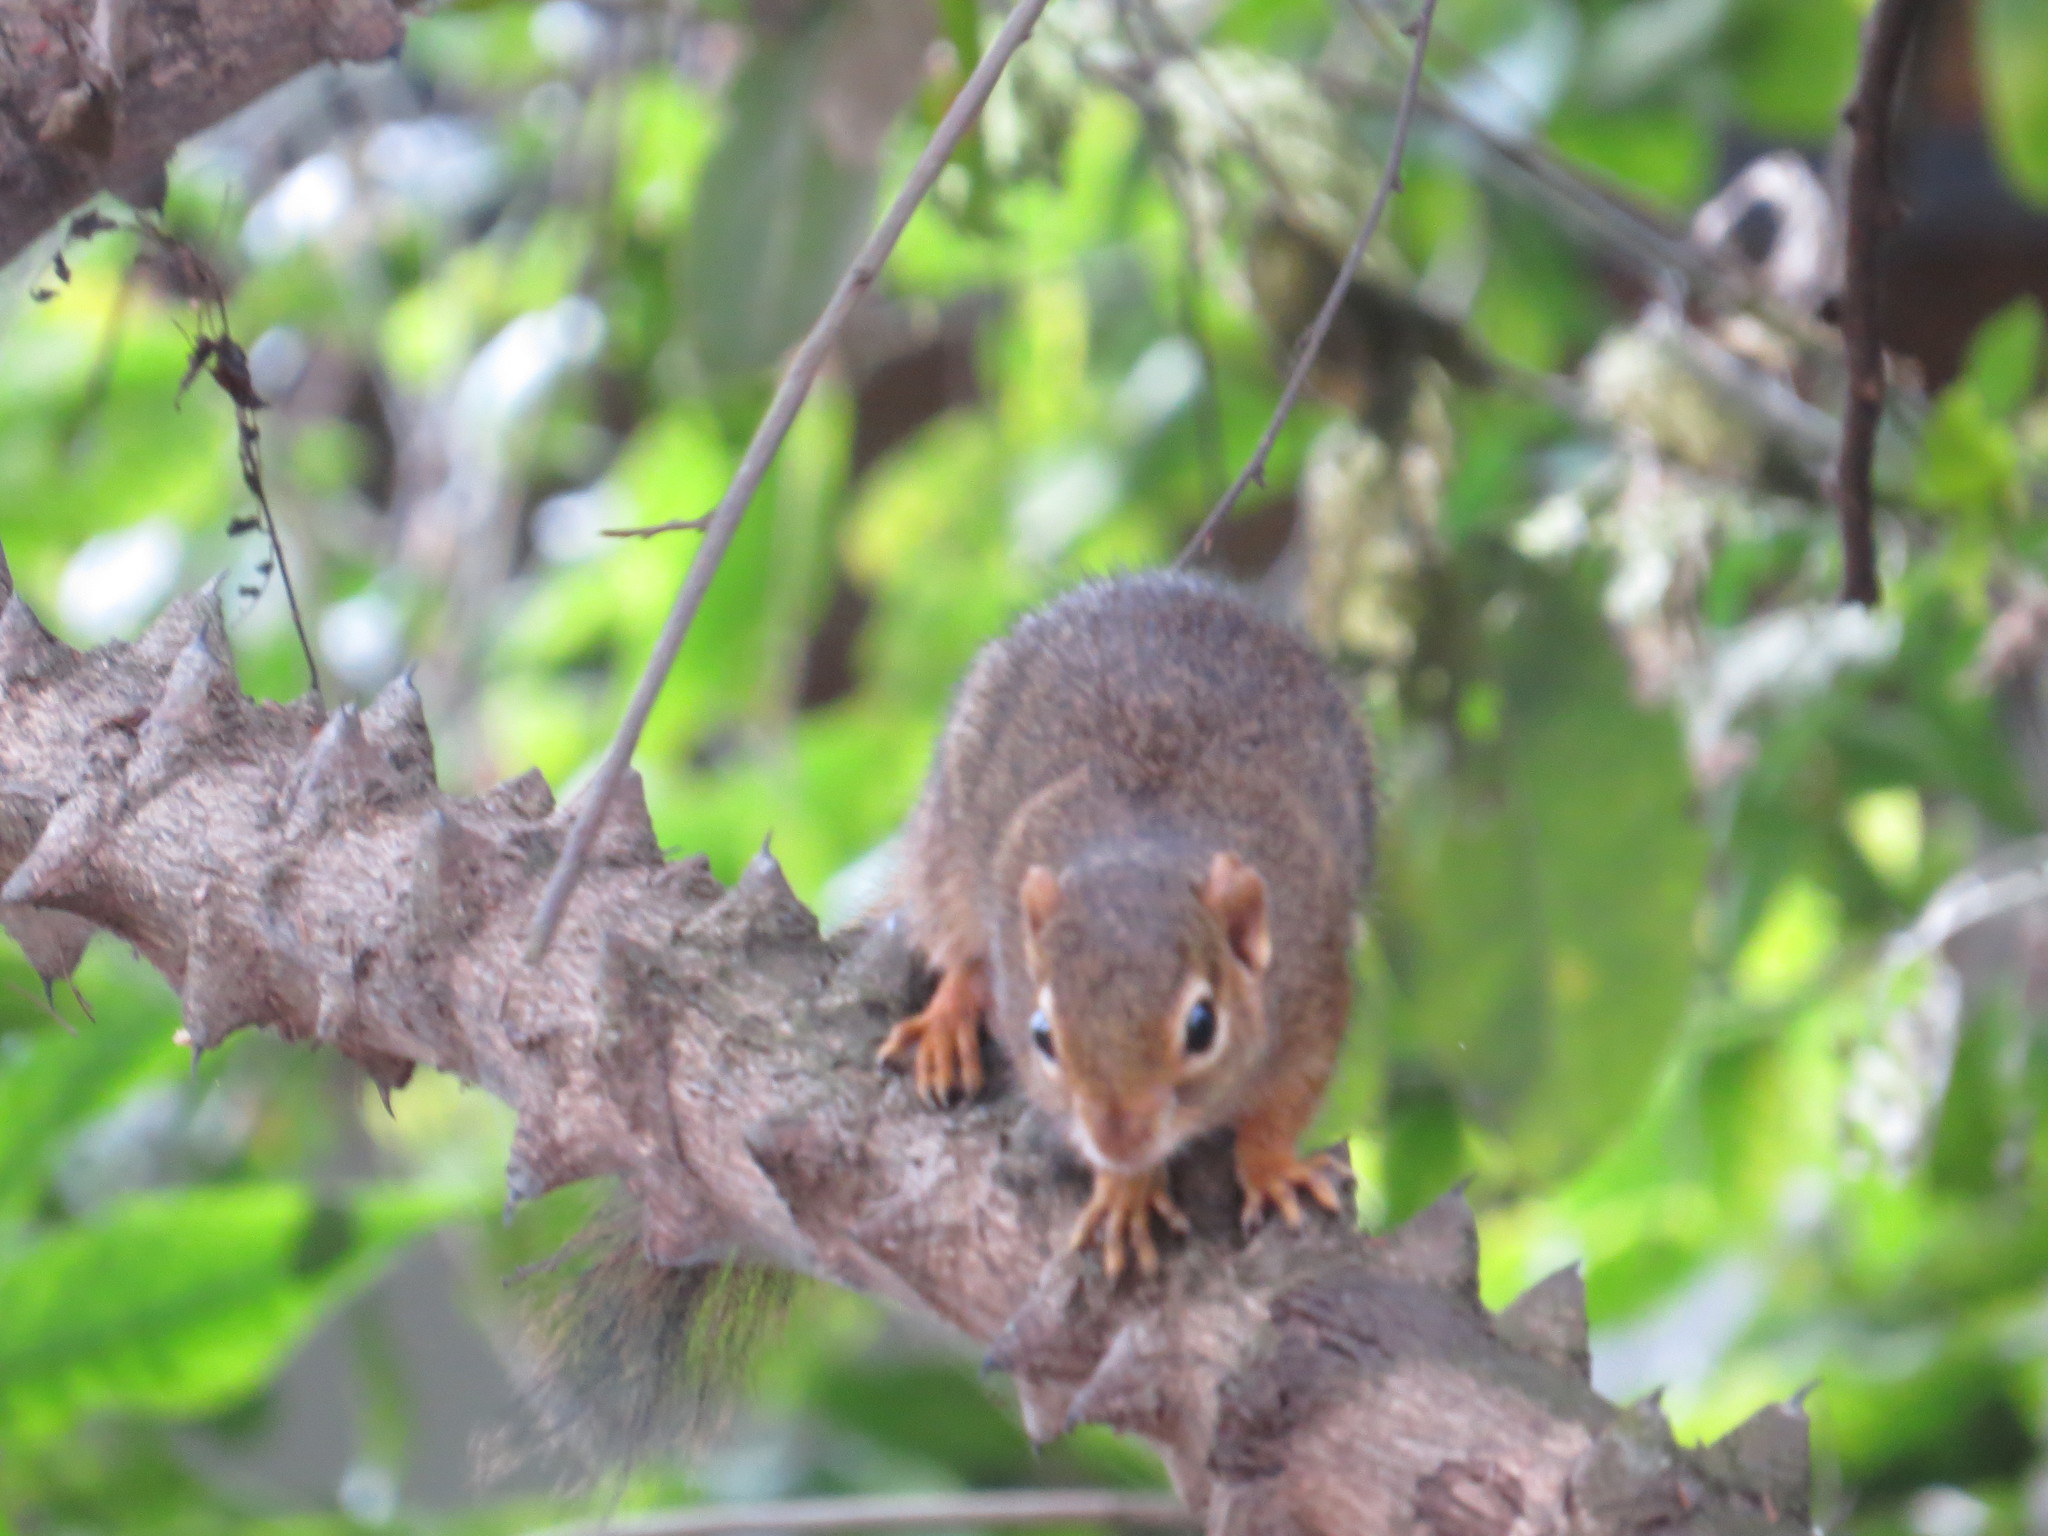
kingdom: Animalia
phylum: Chordata
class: Mammalia
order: Rodentia
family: Sciuridae
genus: Paraxerus
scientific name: Paraxerus ochraceus
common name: Ochre bush squirrel
